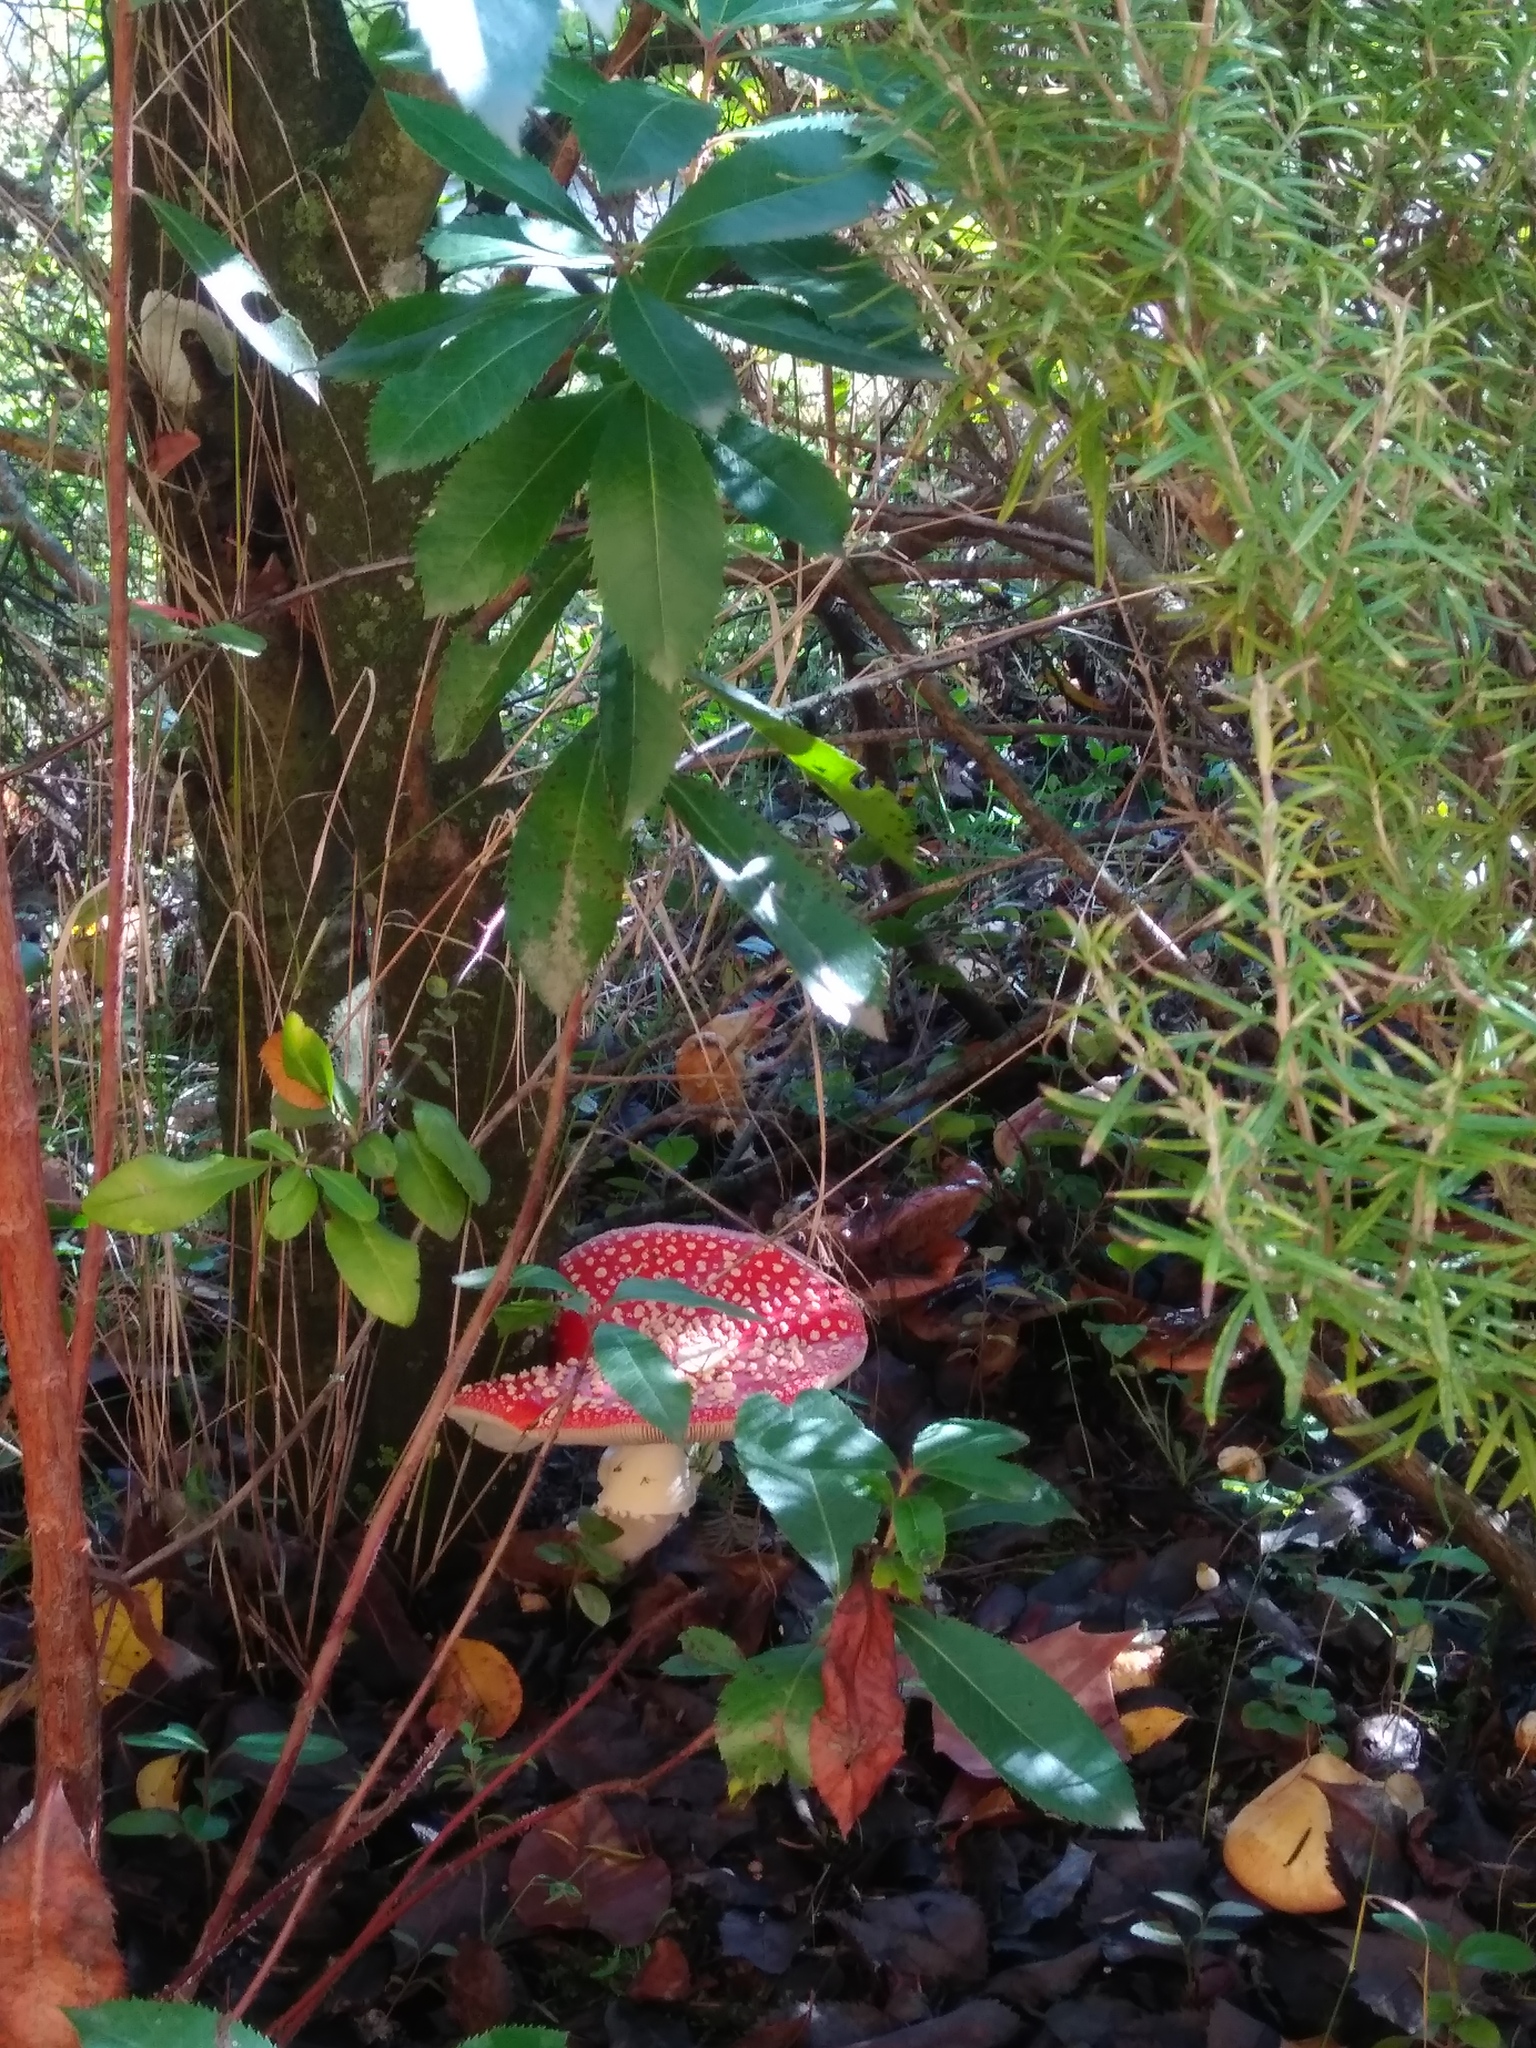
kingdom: Fungi
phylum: Basidiomycota
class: Agaricomycetes
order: Agaricales
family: Amanitaceae
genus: Amanita
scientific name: Amanita muscaria
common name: Fly agaric
